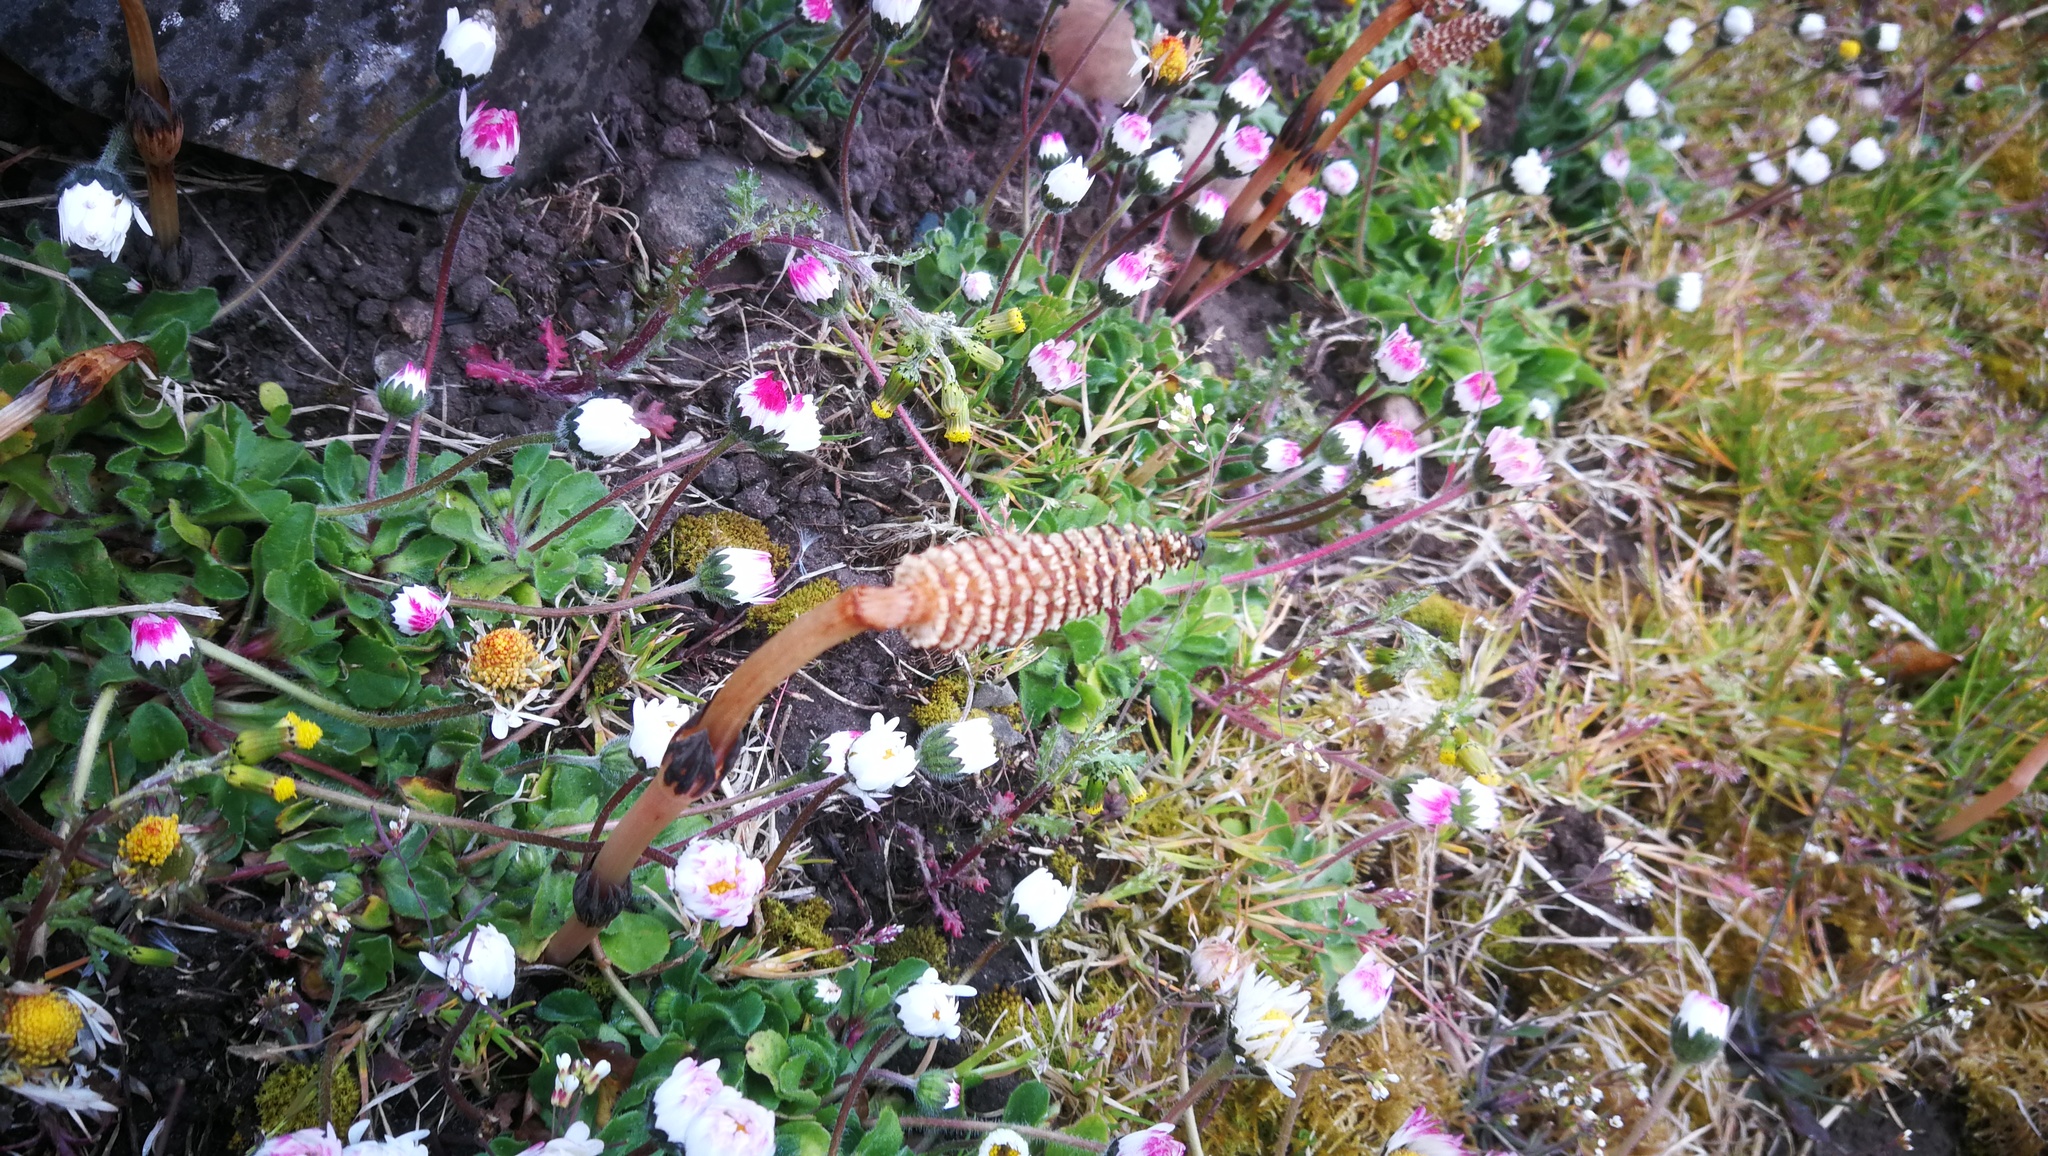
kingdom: Plantae
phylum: Tracheophyta
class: Polypodiopsida
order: Equisetales
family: Equisetaceae
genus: Equisetum
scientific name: Equisetum arvense
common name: Field horsetail
